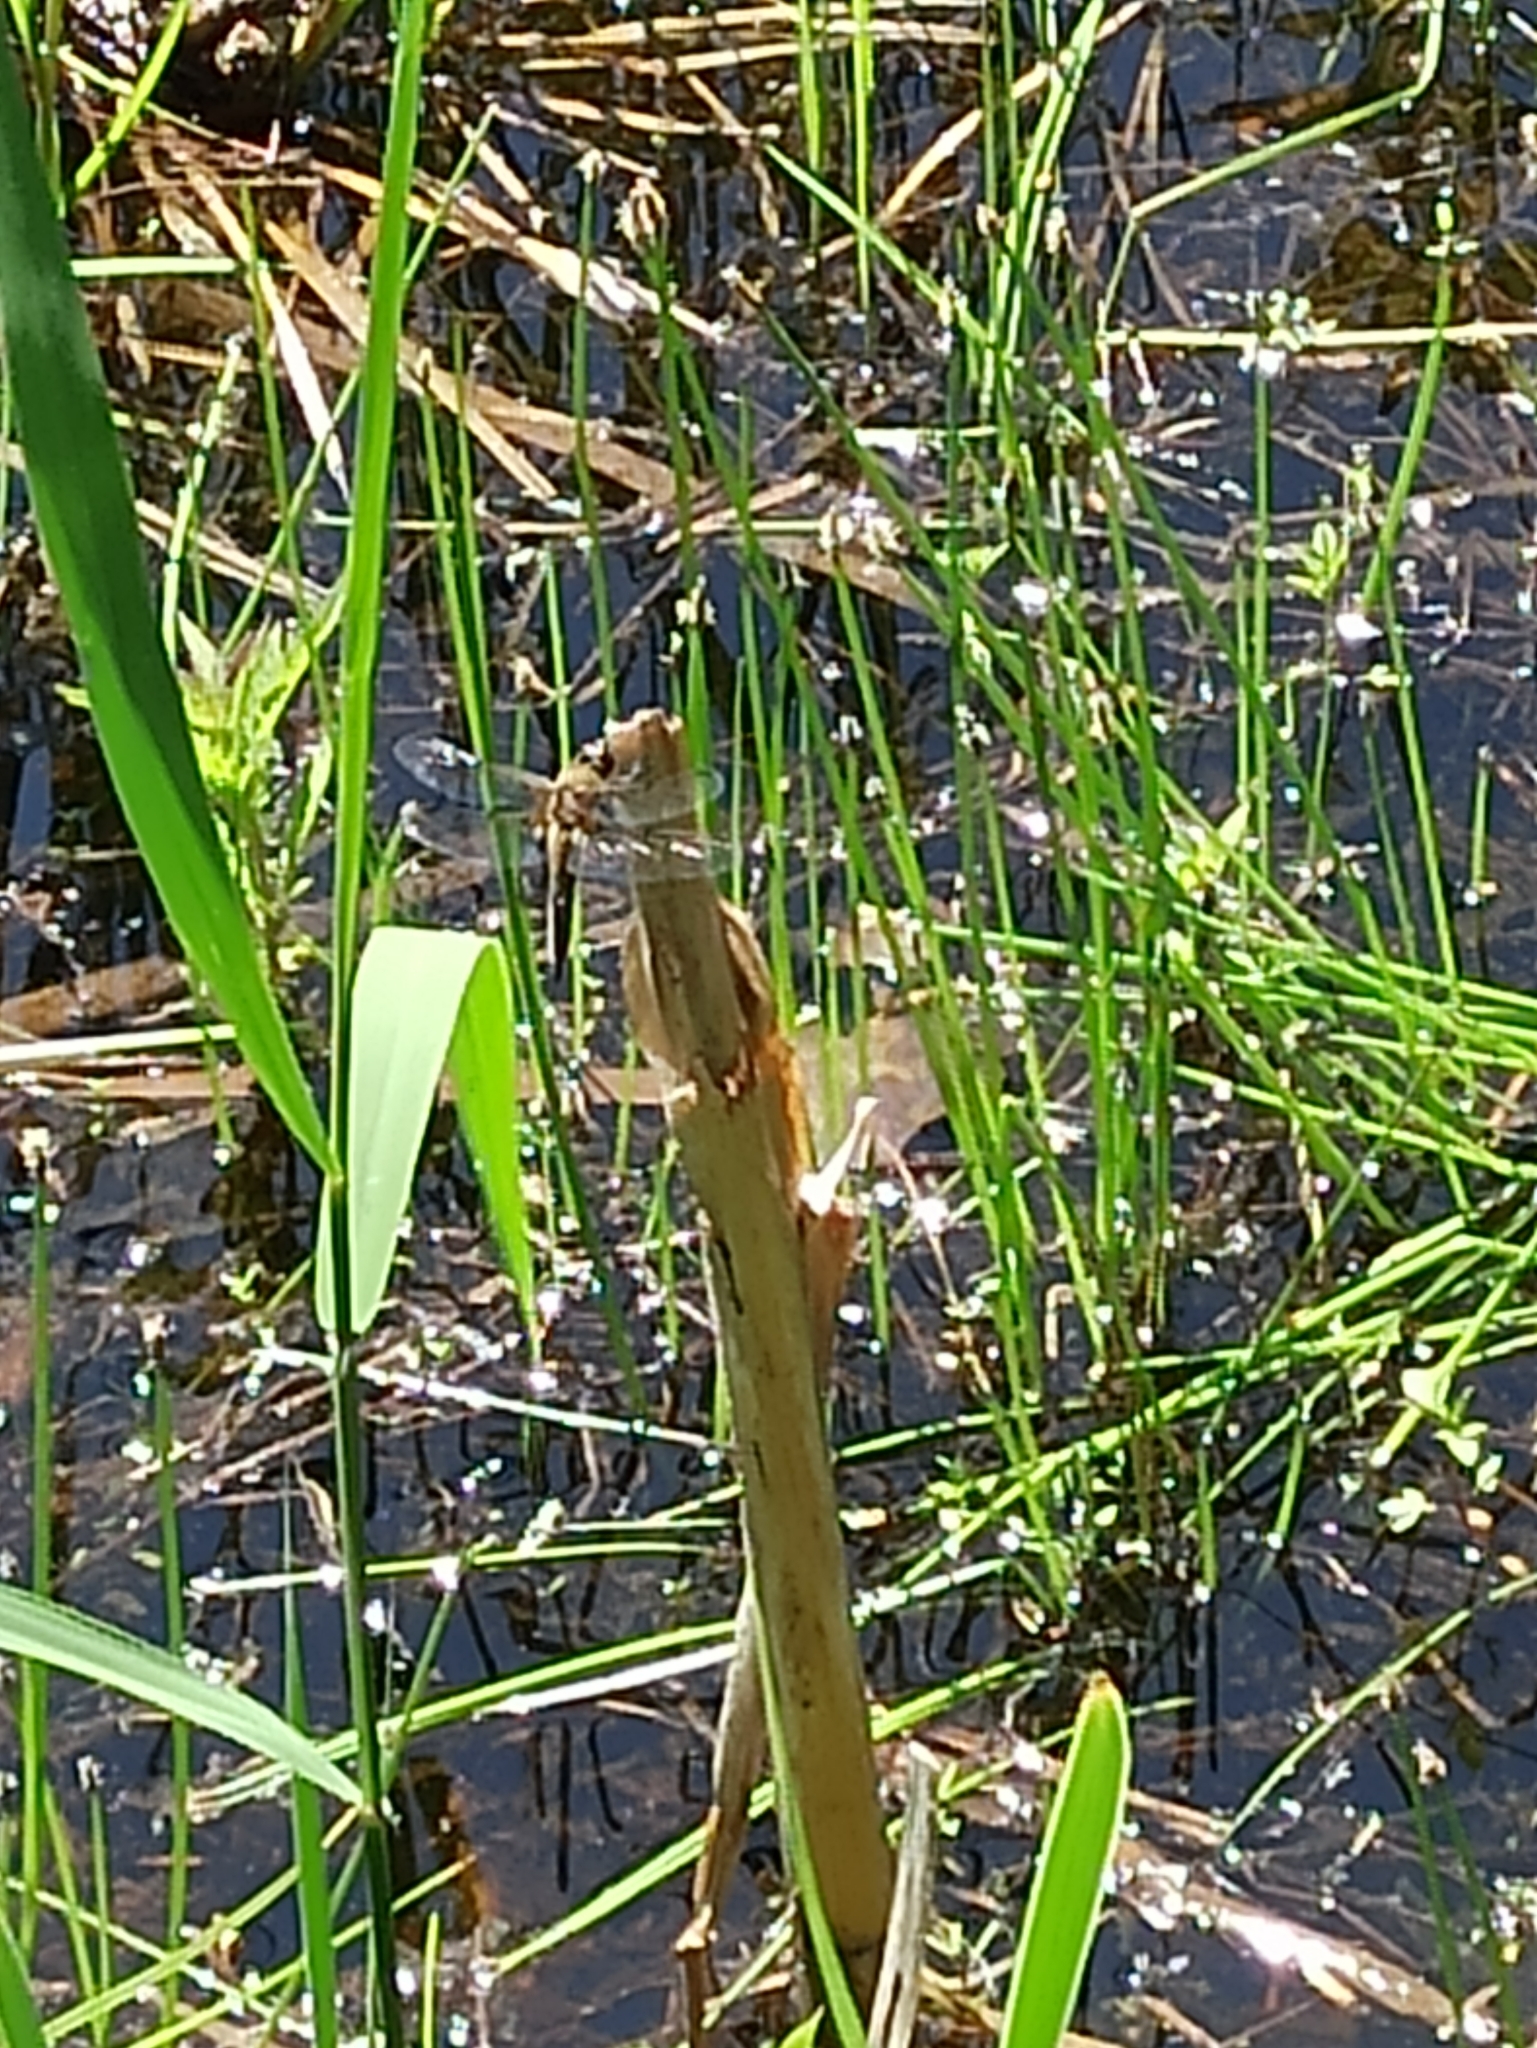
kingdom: Animalia
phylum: Arthropoda
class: Insecta
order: Odonata
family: Libellulidae
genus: Libellula
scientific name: Libellula quadrimaculata
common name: Four-spotted chaser
